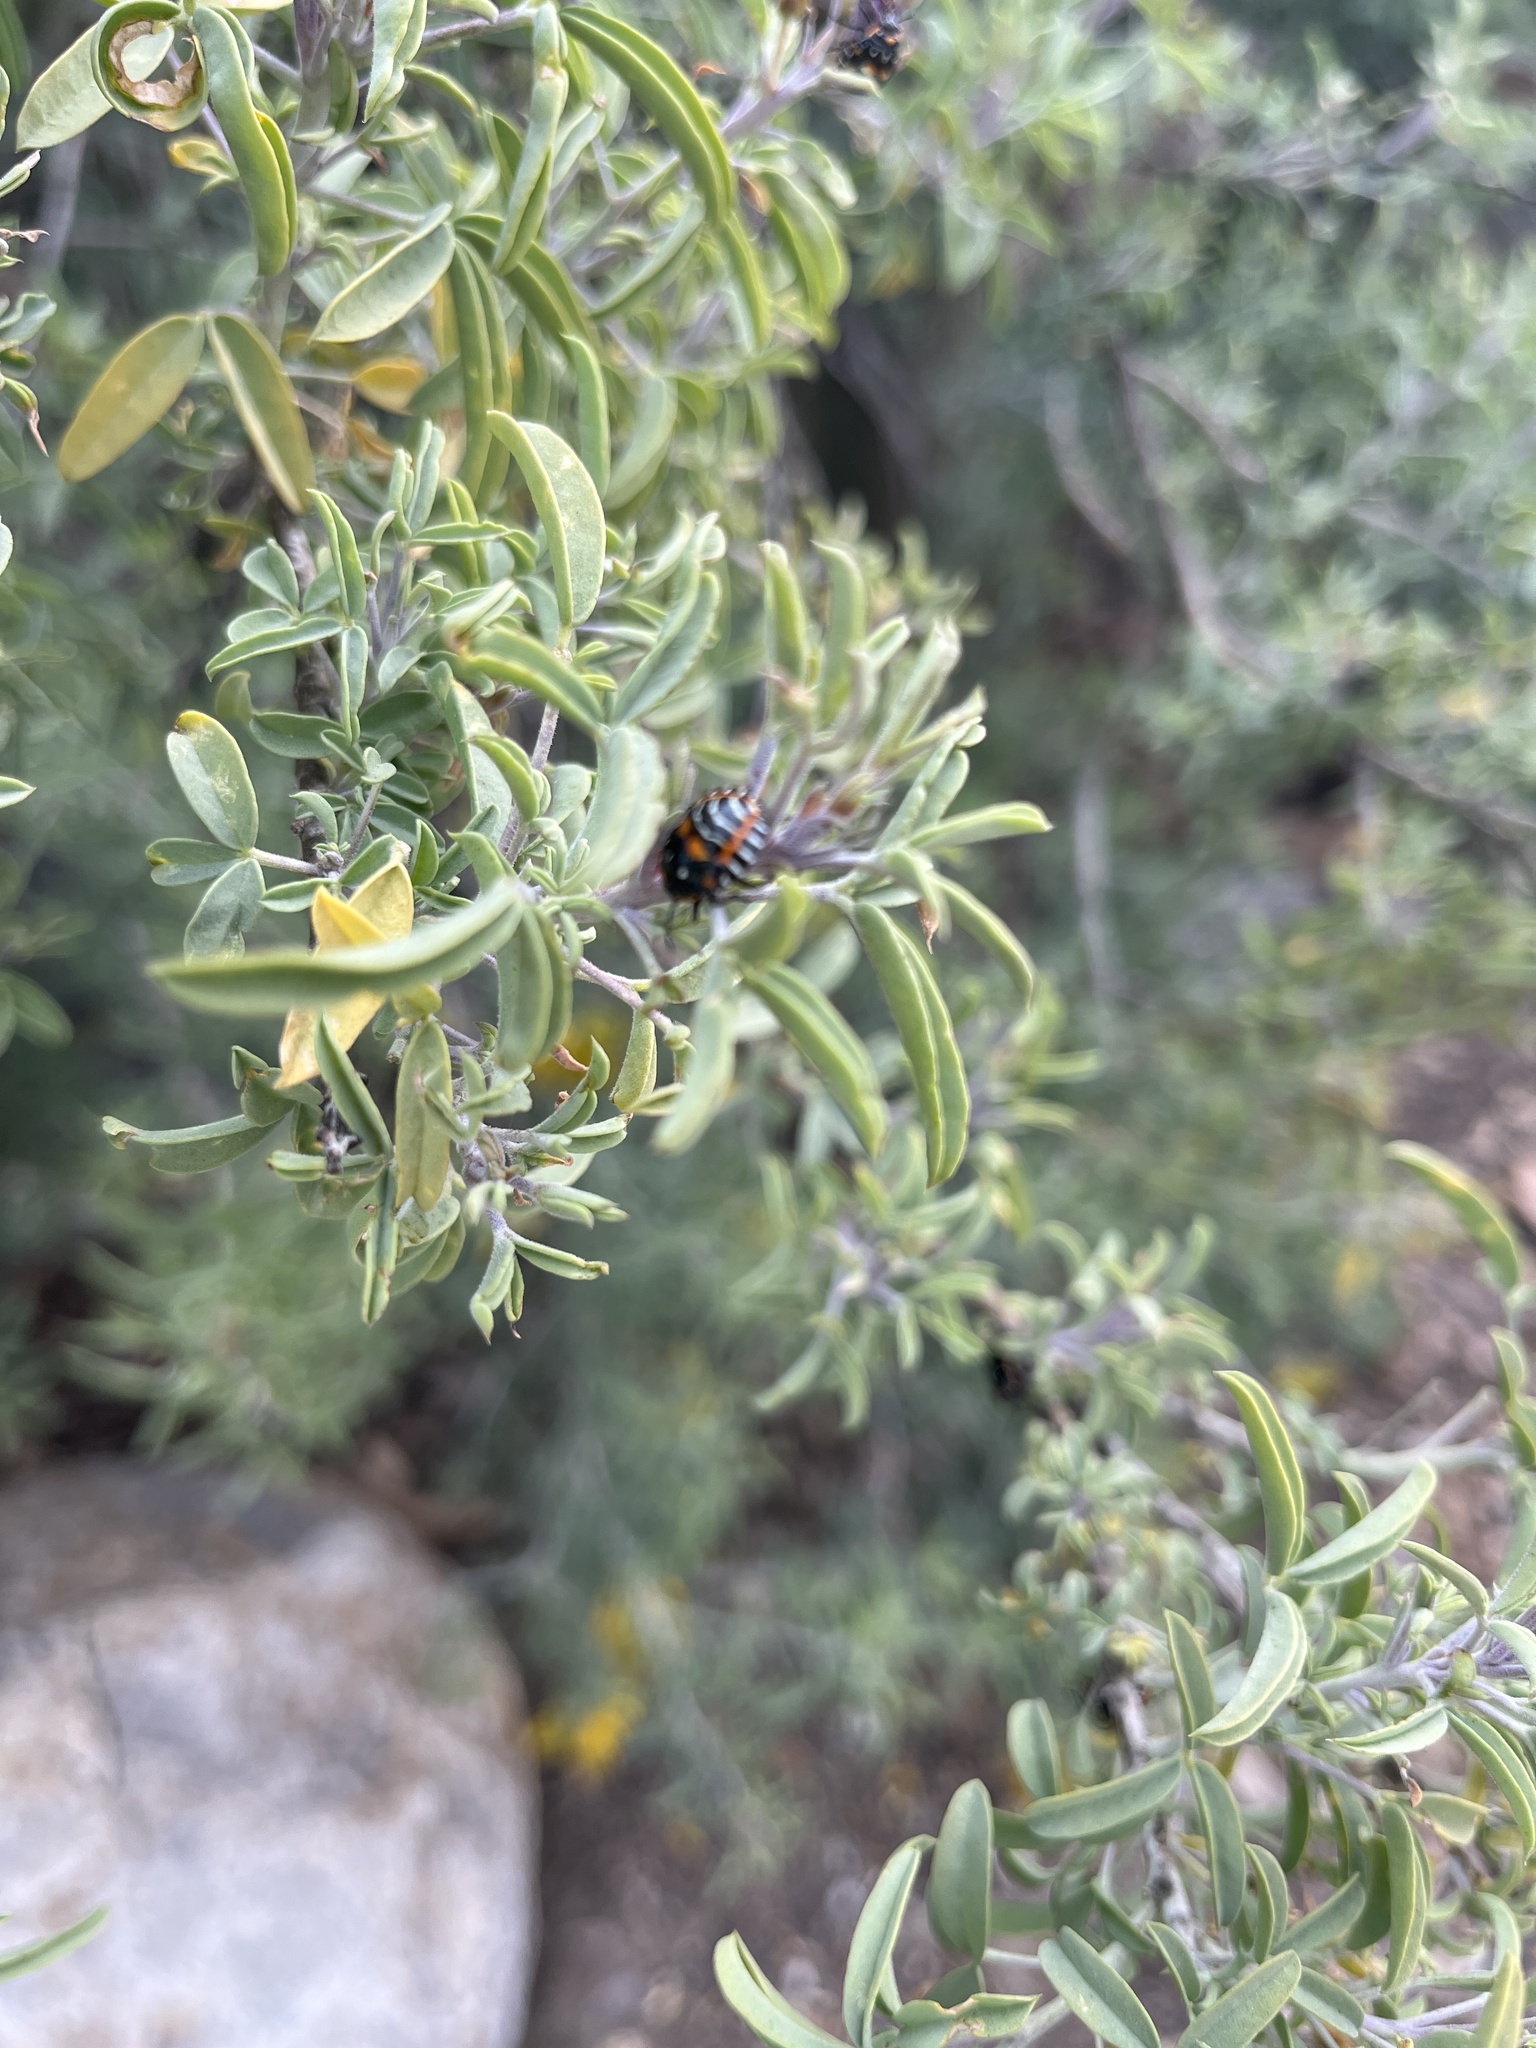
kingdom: Animalia
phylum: Arthropoda
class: Insecta
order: Hemiptera
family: Pentatomidae
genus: Murgantia
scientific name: Murgantia histrionica
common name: Harlequin bug
